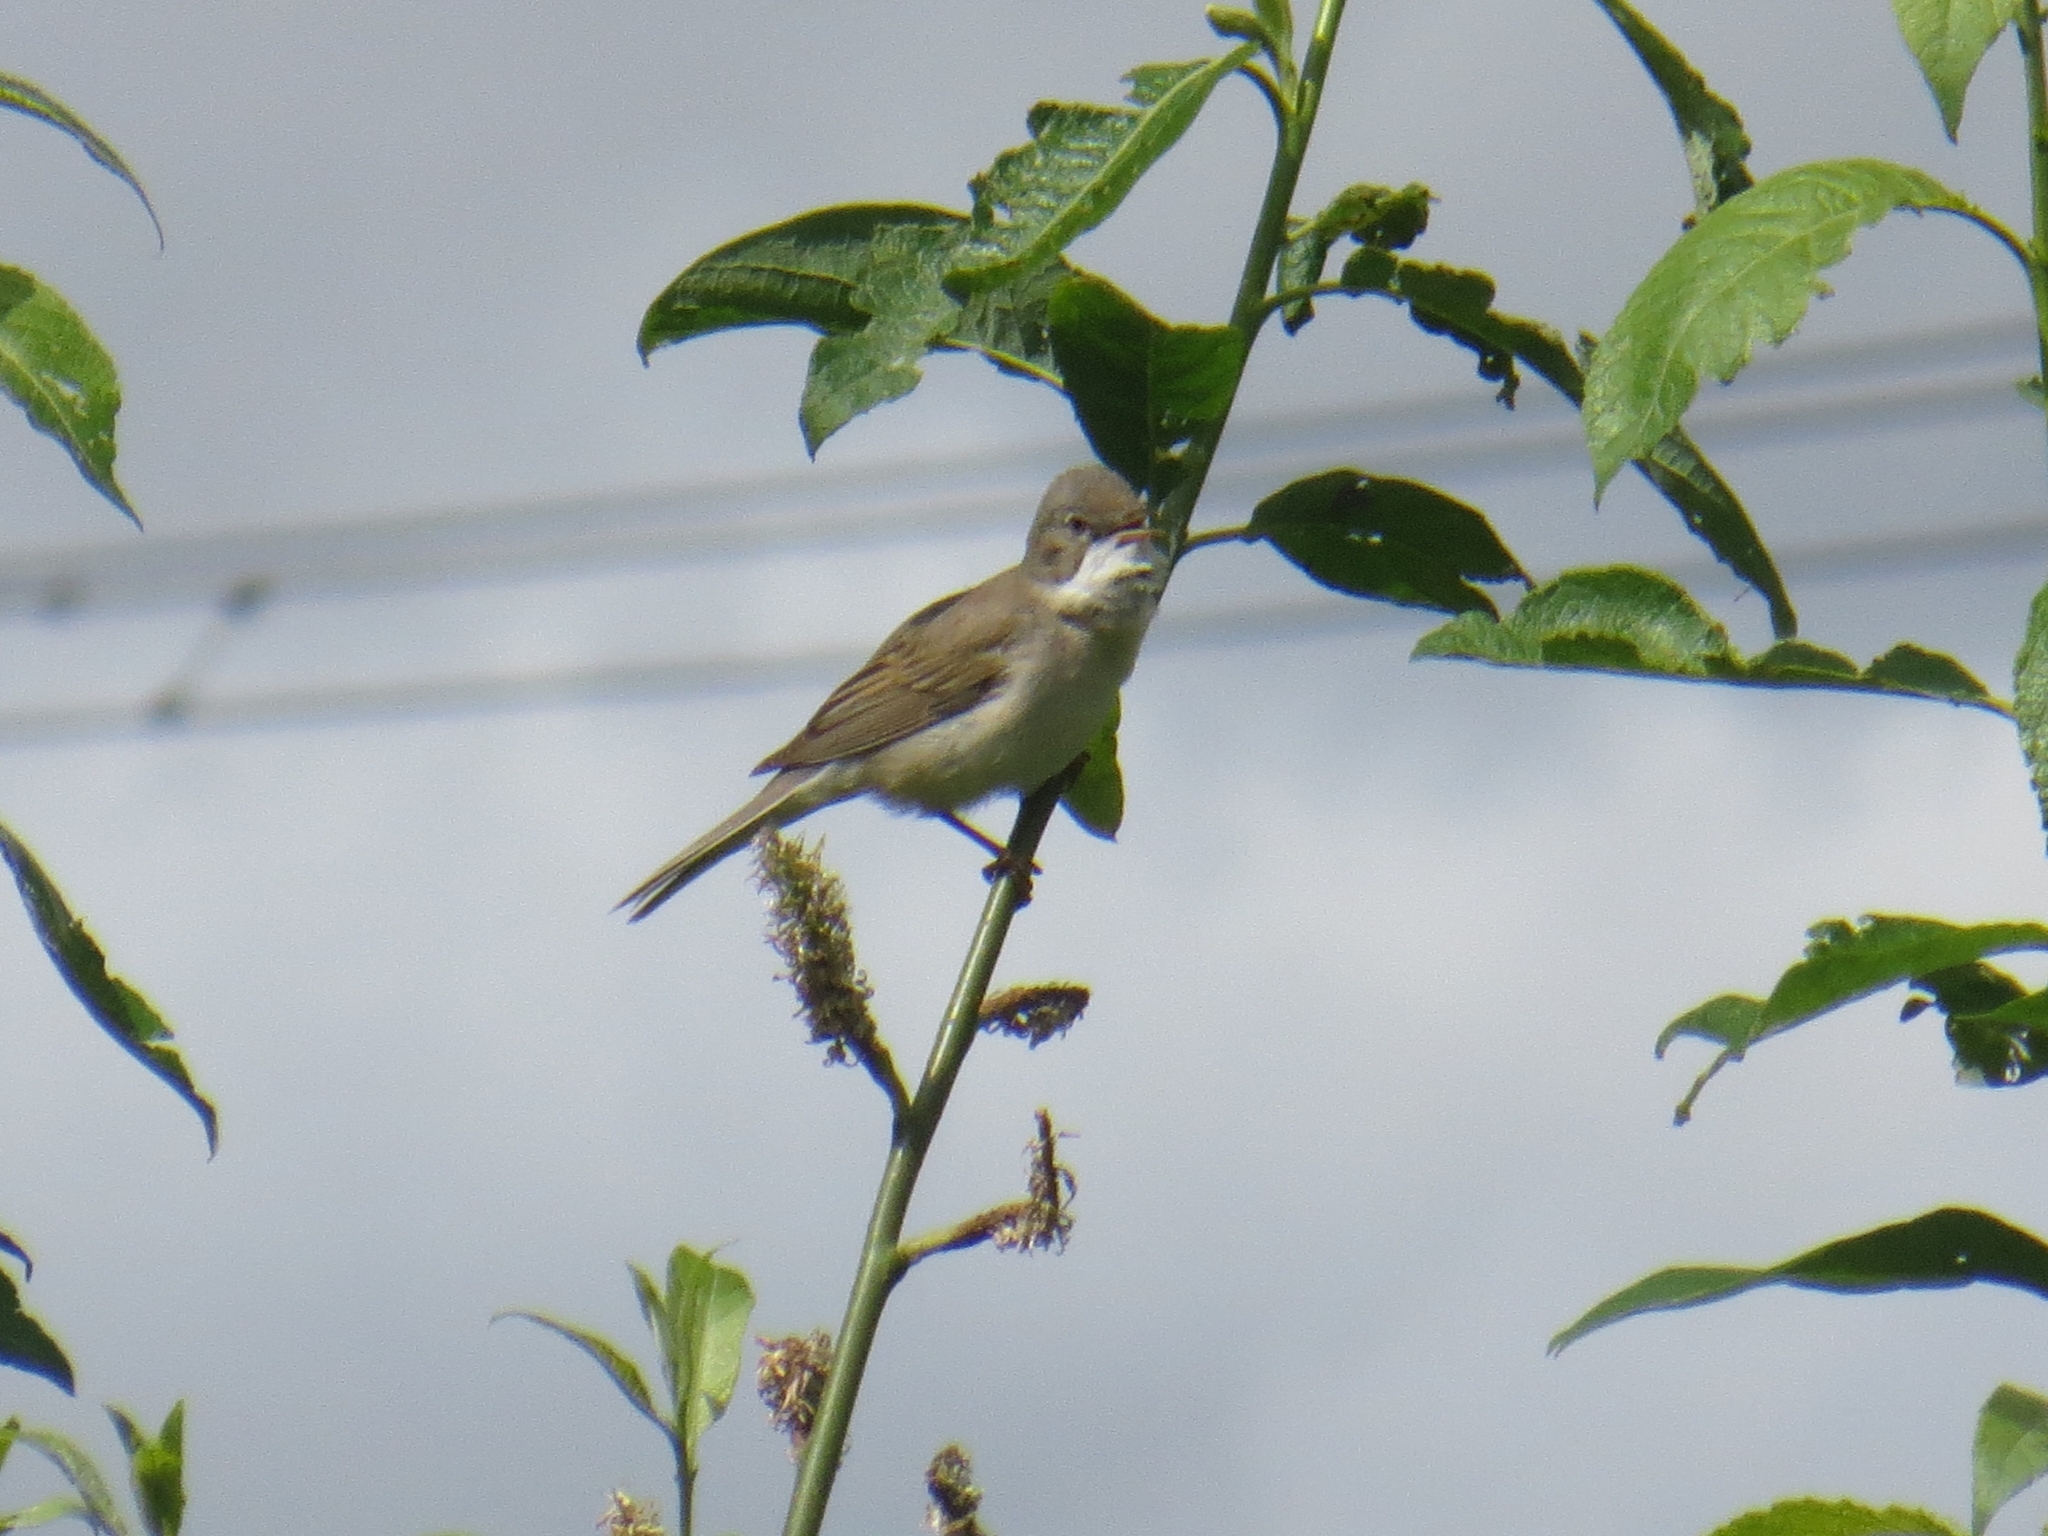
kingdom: Animalia
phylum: Chordata
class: Aves
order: Passeriformes
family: Sylviidae
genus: Sylvia
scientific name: Sylvia communis
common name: Common whitethroat
